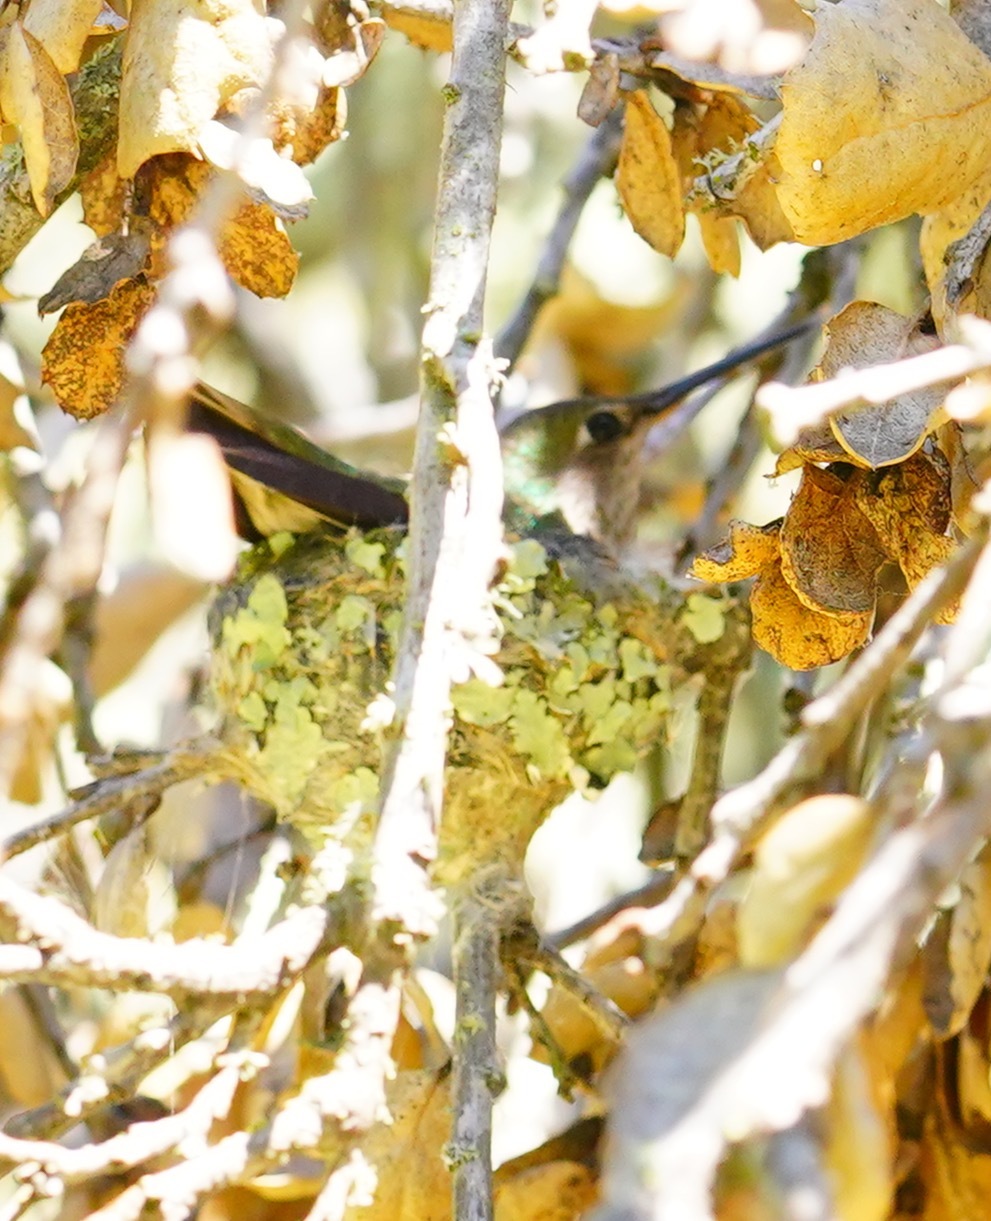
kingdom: Animalia
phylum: Chordata
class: Aves
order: Apodiformes
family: Trochilidae
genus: Calypte
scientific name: Calypte anna
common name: Anna's hummingbird
